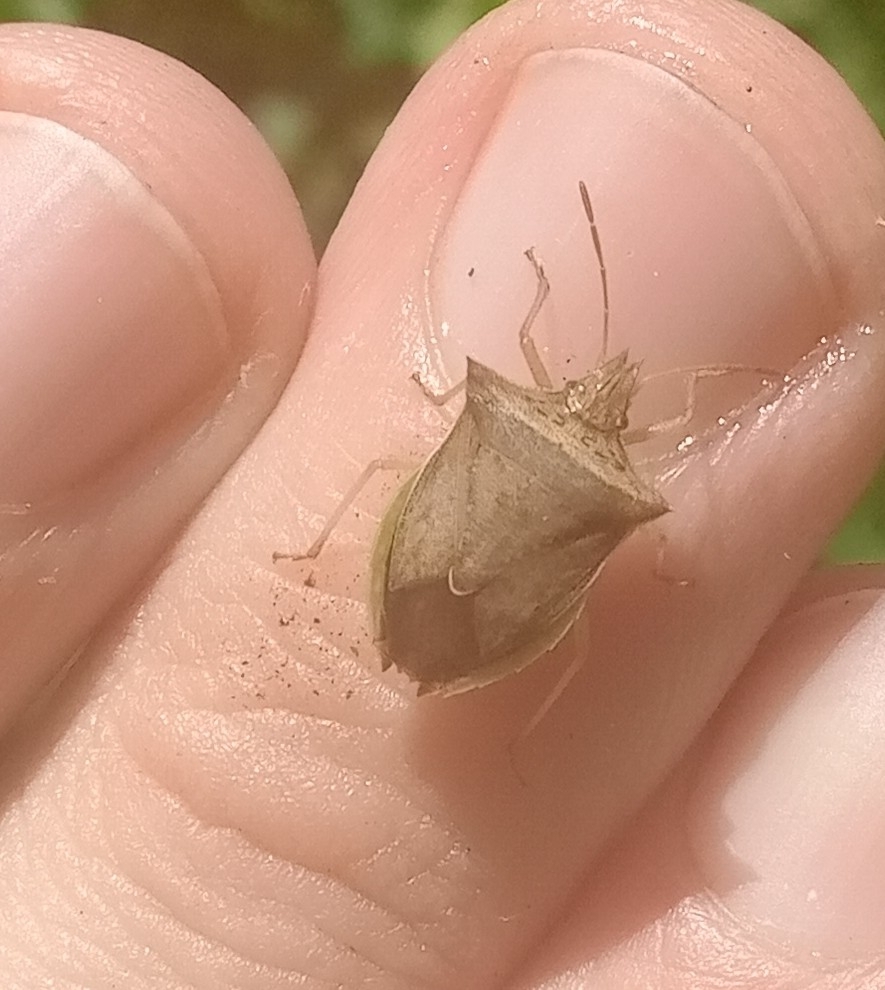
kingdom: Animalia
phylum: Arthropoda
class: Insecta
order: Hemiptera
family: Pentatomidae
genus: Diceraeus
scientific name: Diceraeus furcatus
